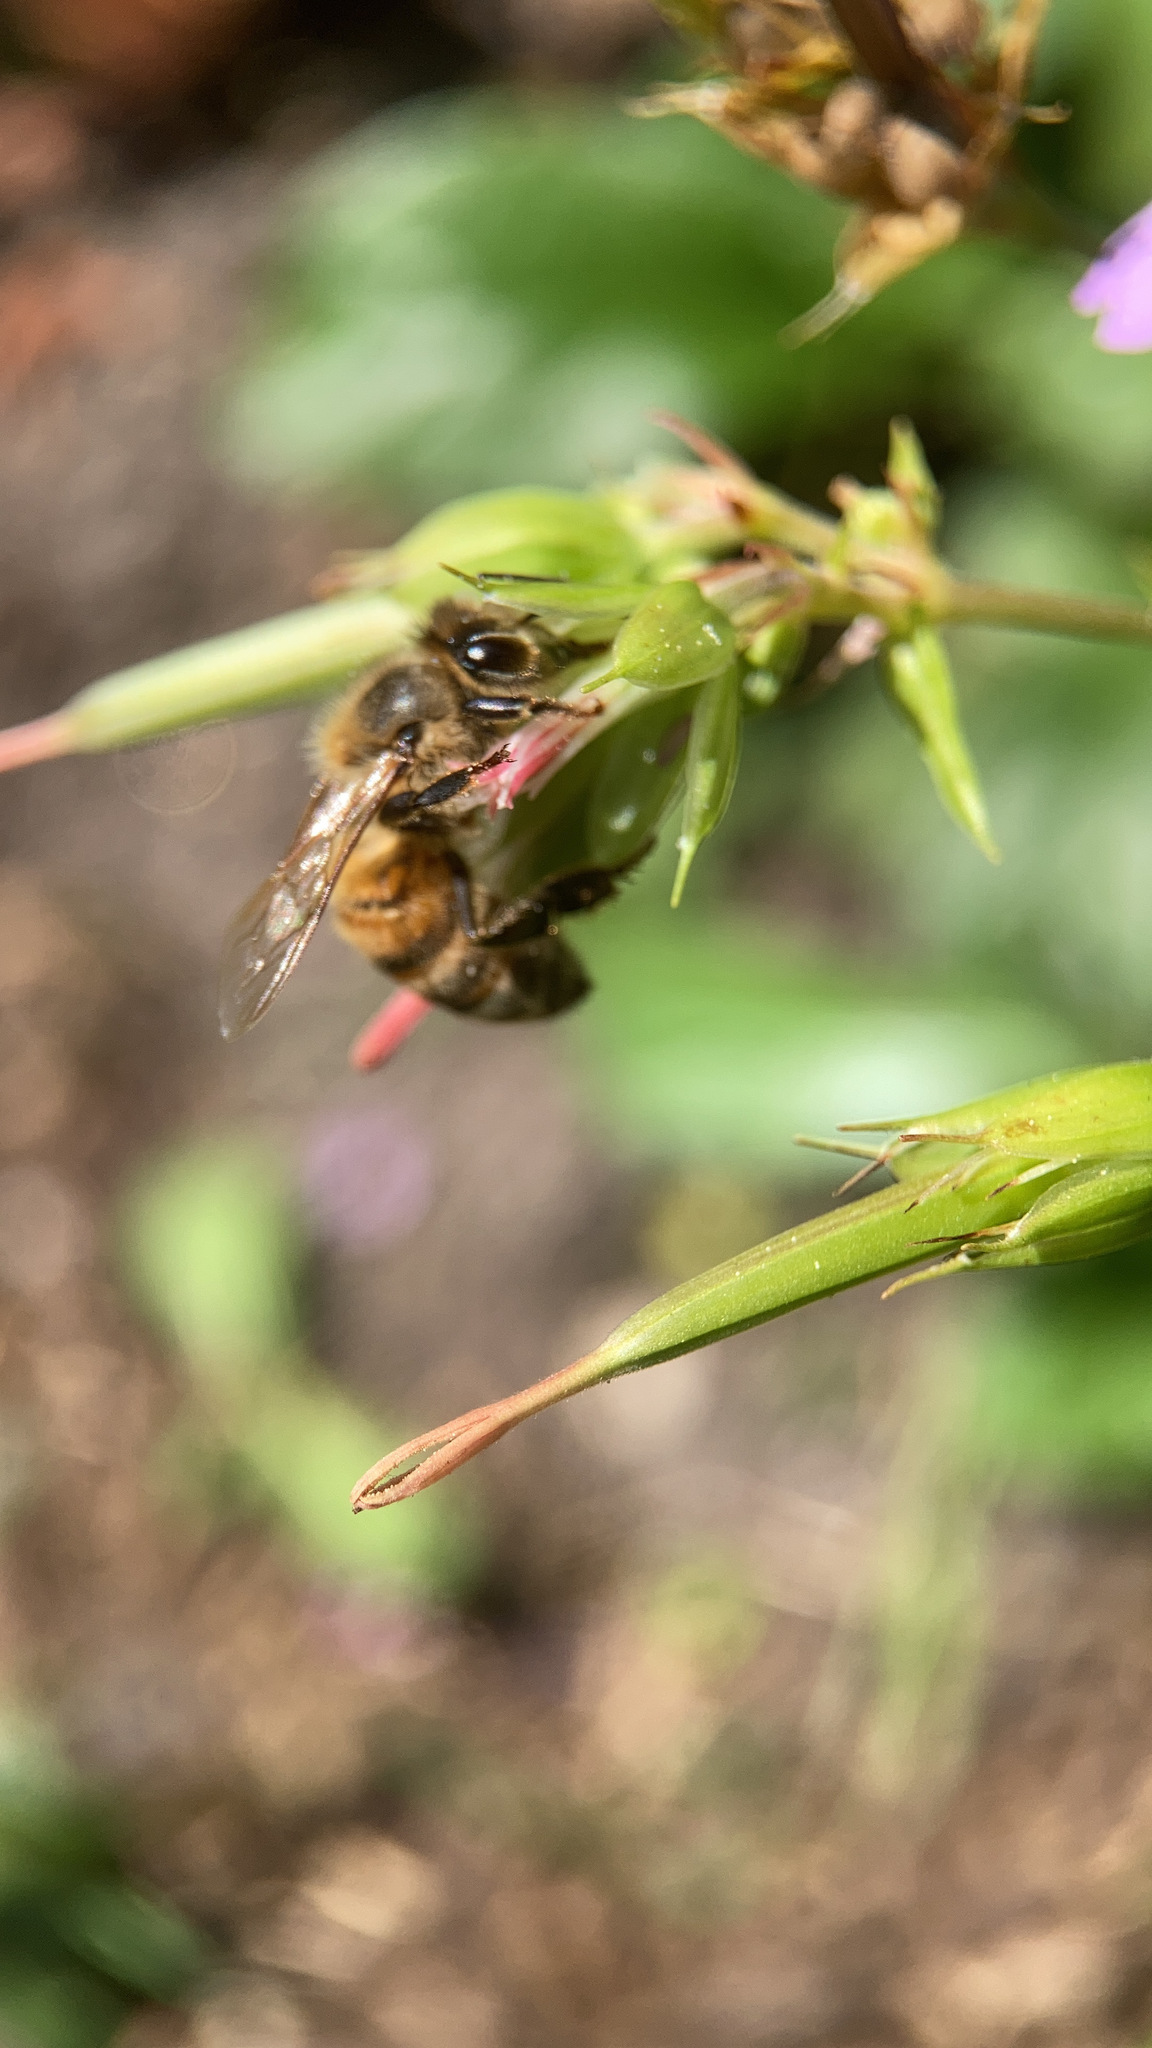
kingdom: Animalia
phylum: Arthropoda
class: Insecta
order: Hymenoptera
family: Apidae
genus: Apis
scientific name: Apis mellifera
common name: Honey bee
